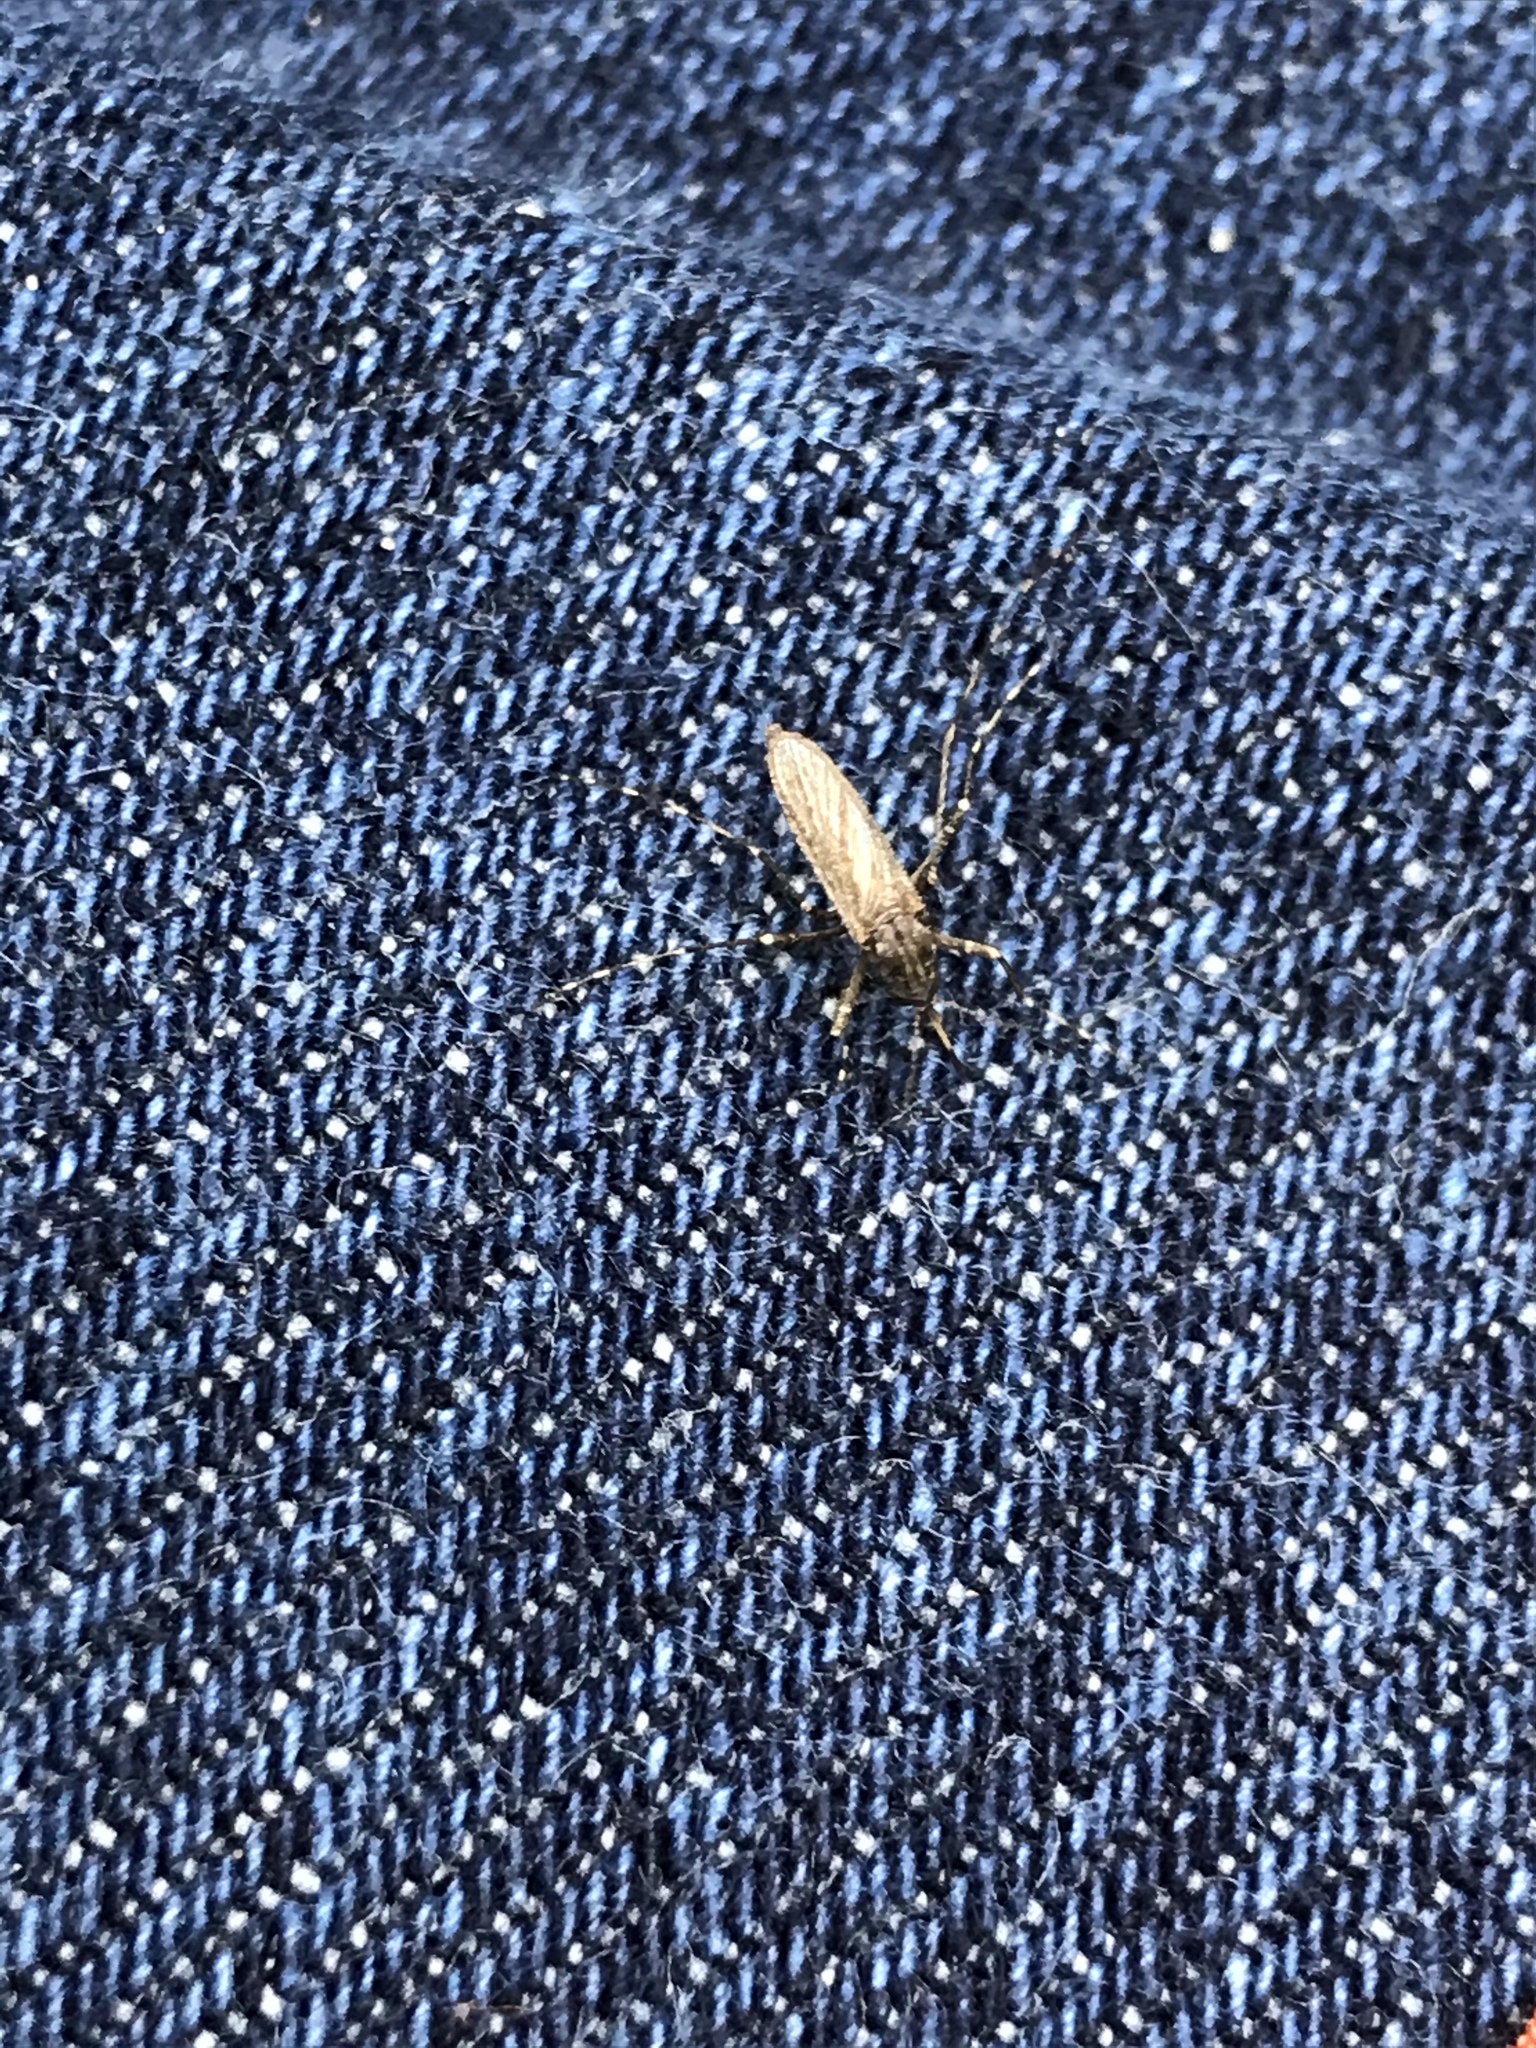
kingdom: Animalia
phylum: Arthropoda
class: Insecta
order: Diptera
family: Culicidae
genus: Psorophora
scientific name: Psorophora columbiae
